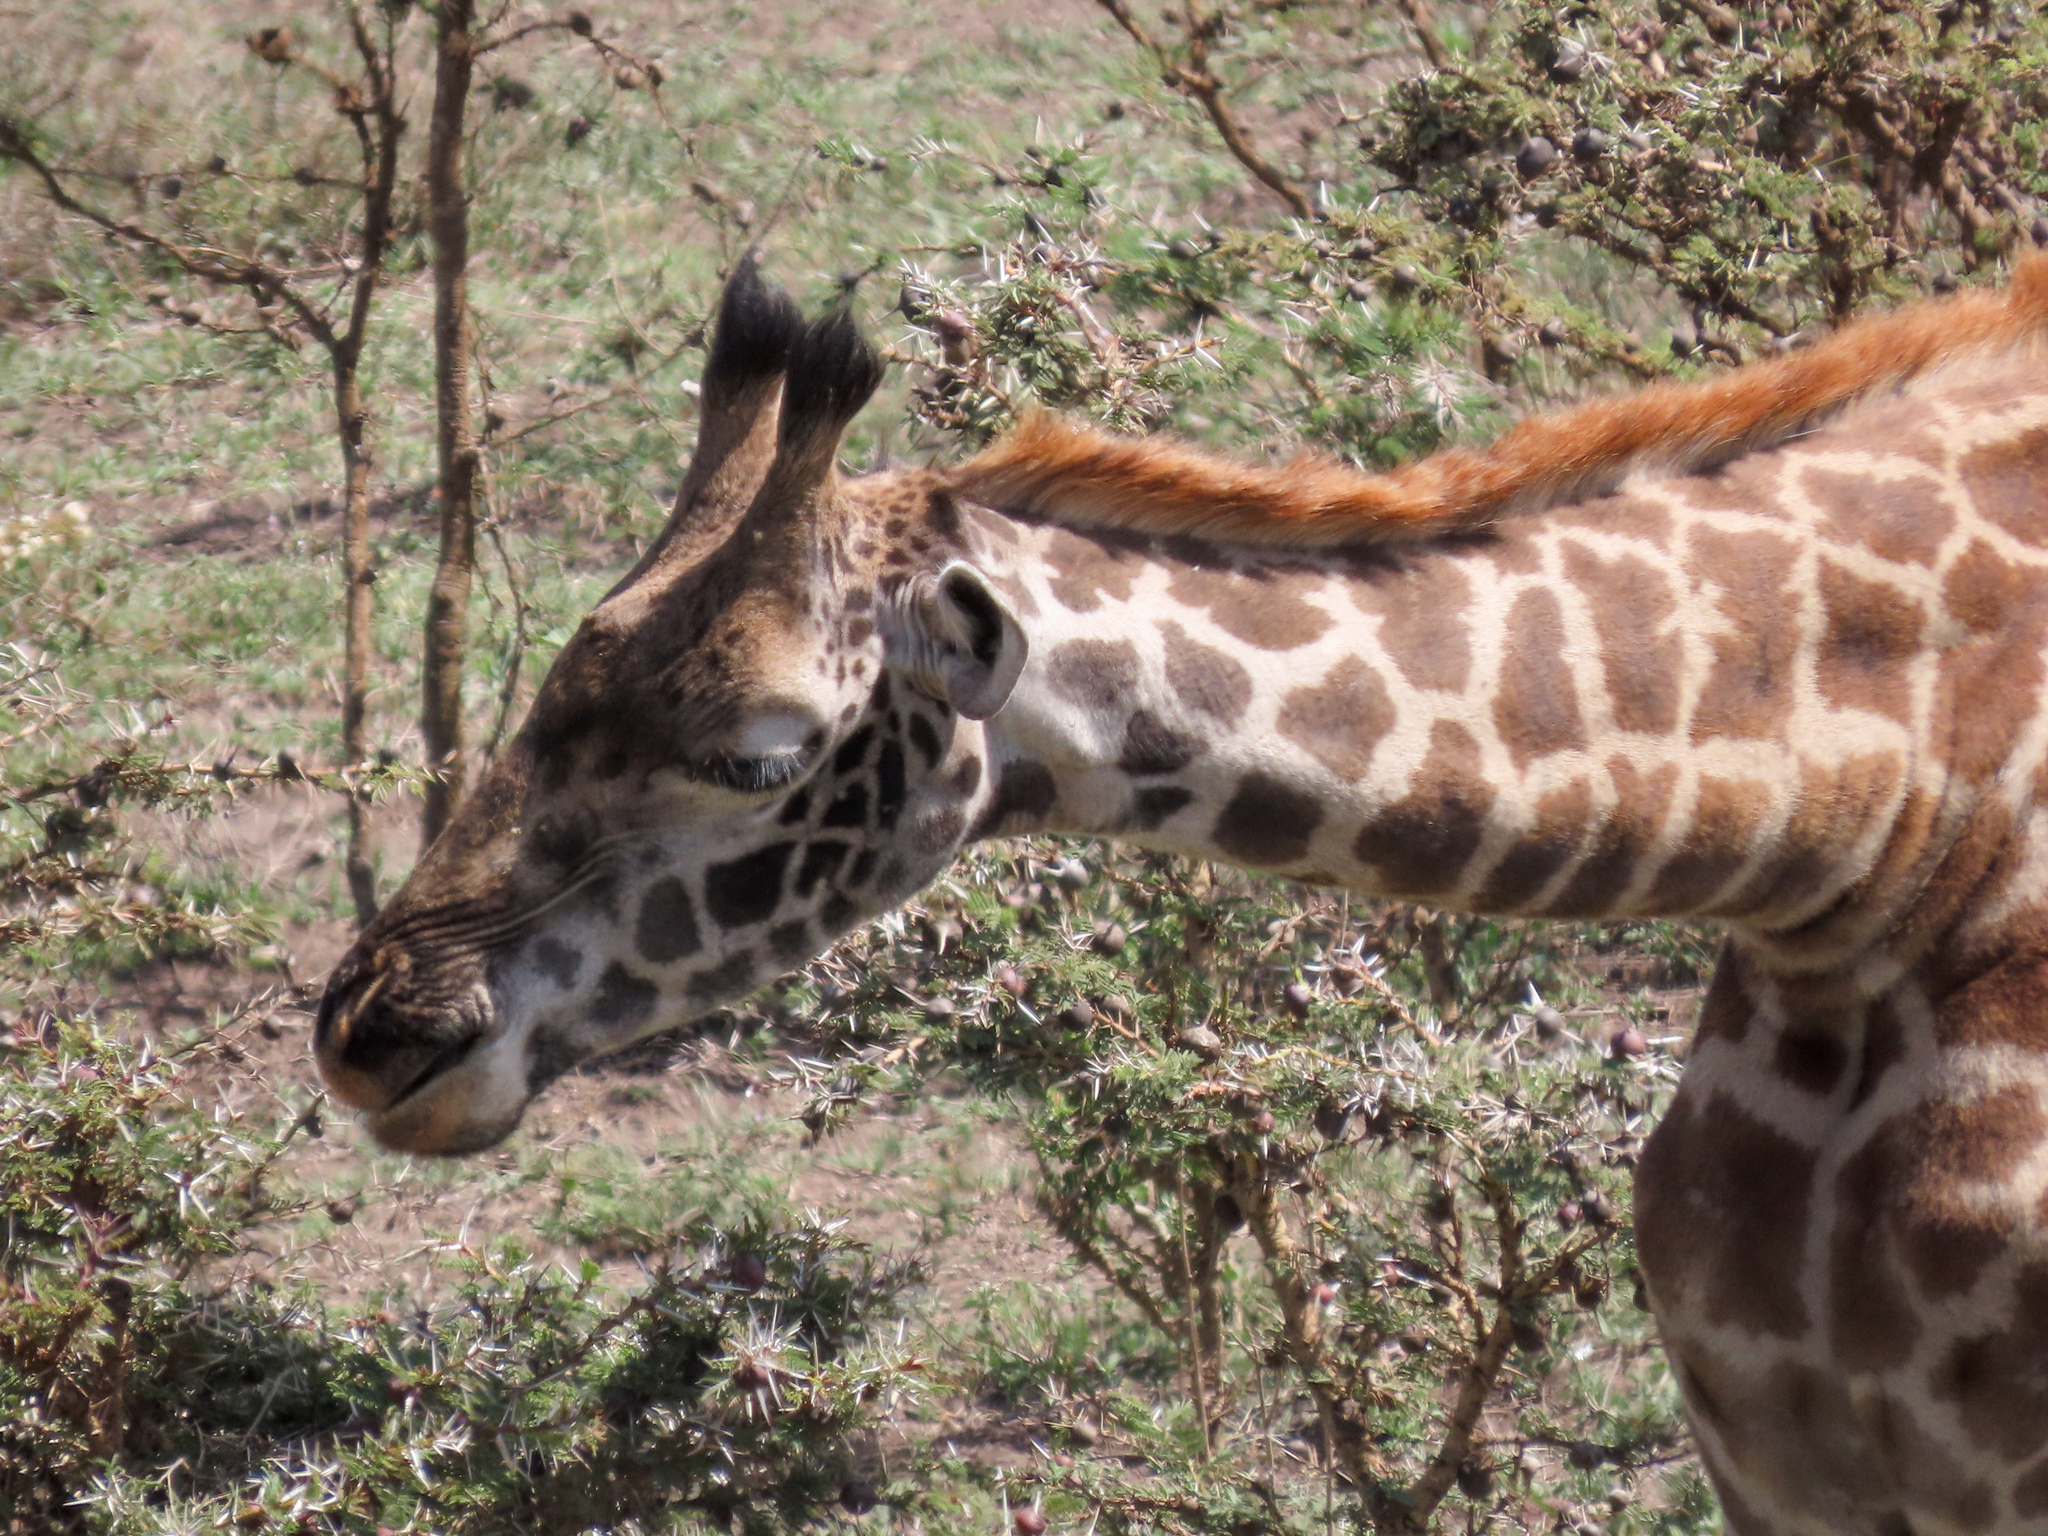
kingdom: Animalia
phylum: Chordata
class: Mammalia
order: Artiodactyla
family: Giraffidae
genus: Giraffa
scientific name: Giraffa tippelskirchi
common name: Masai giraffe
